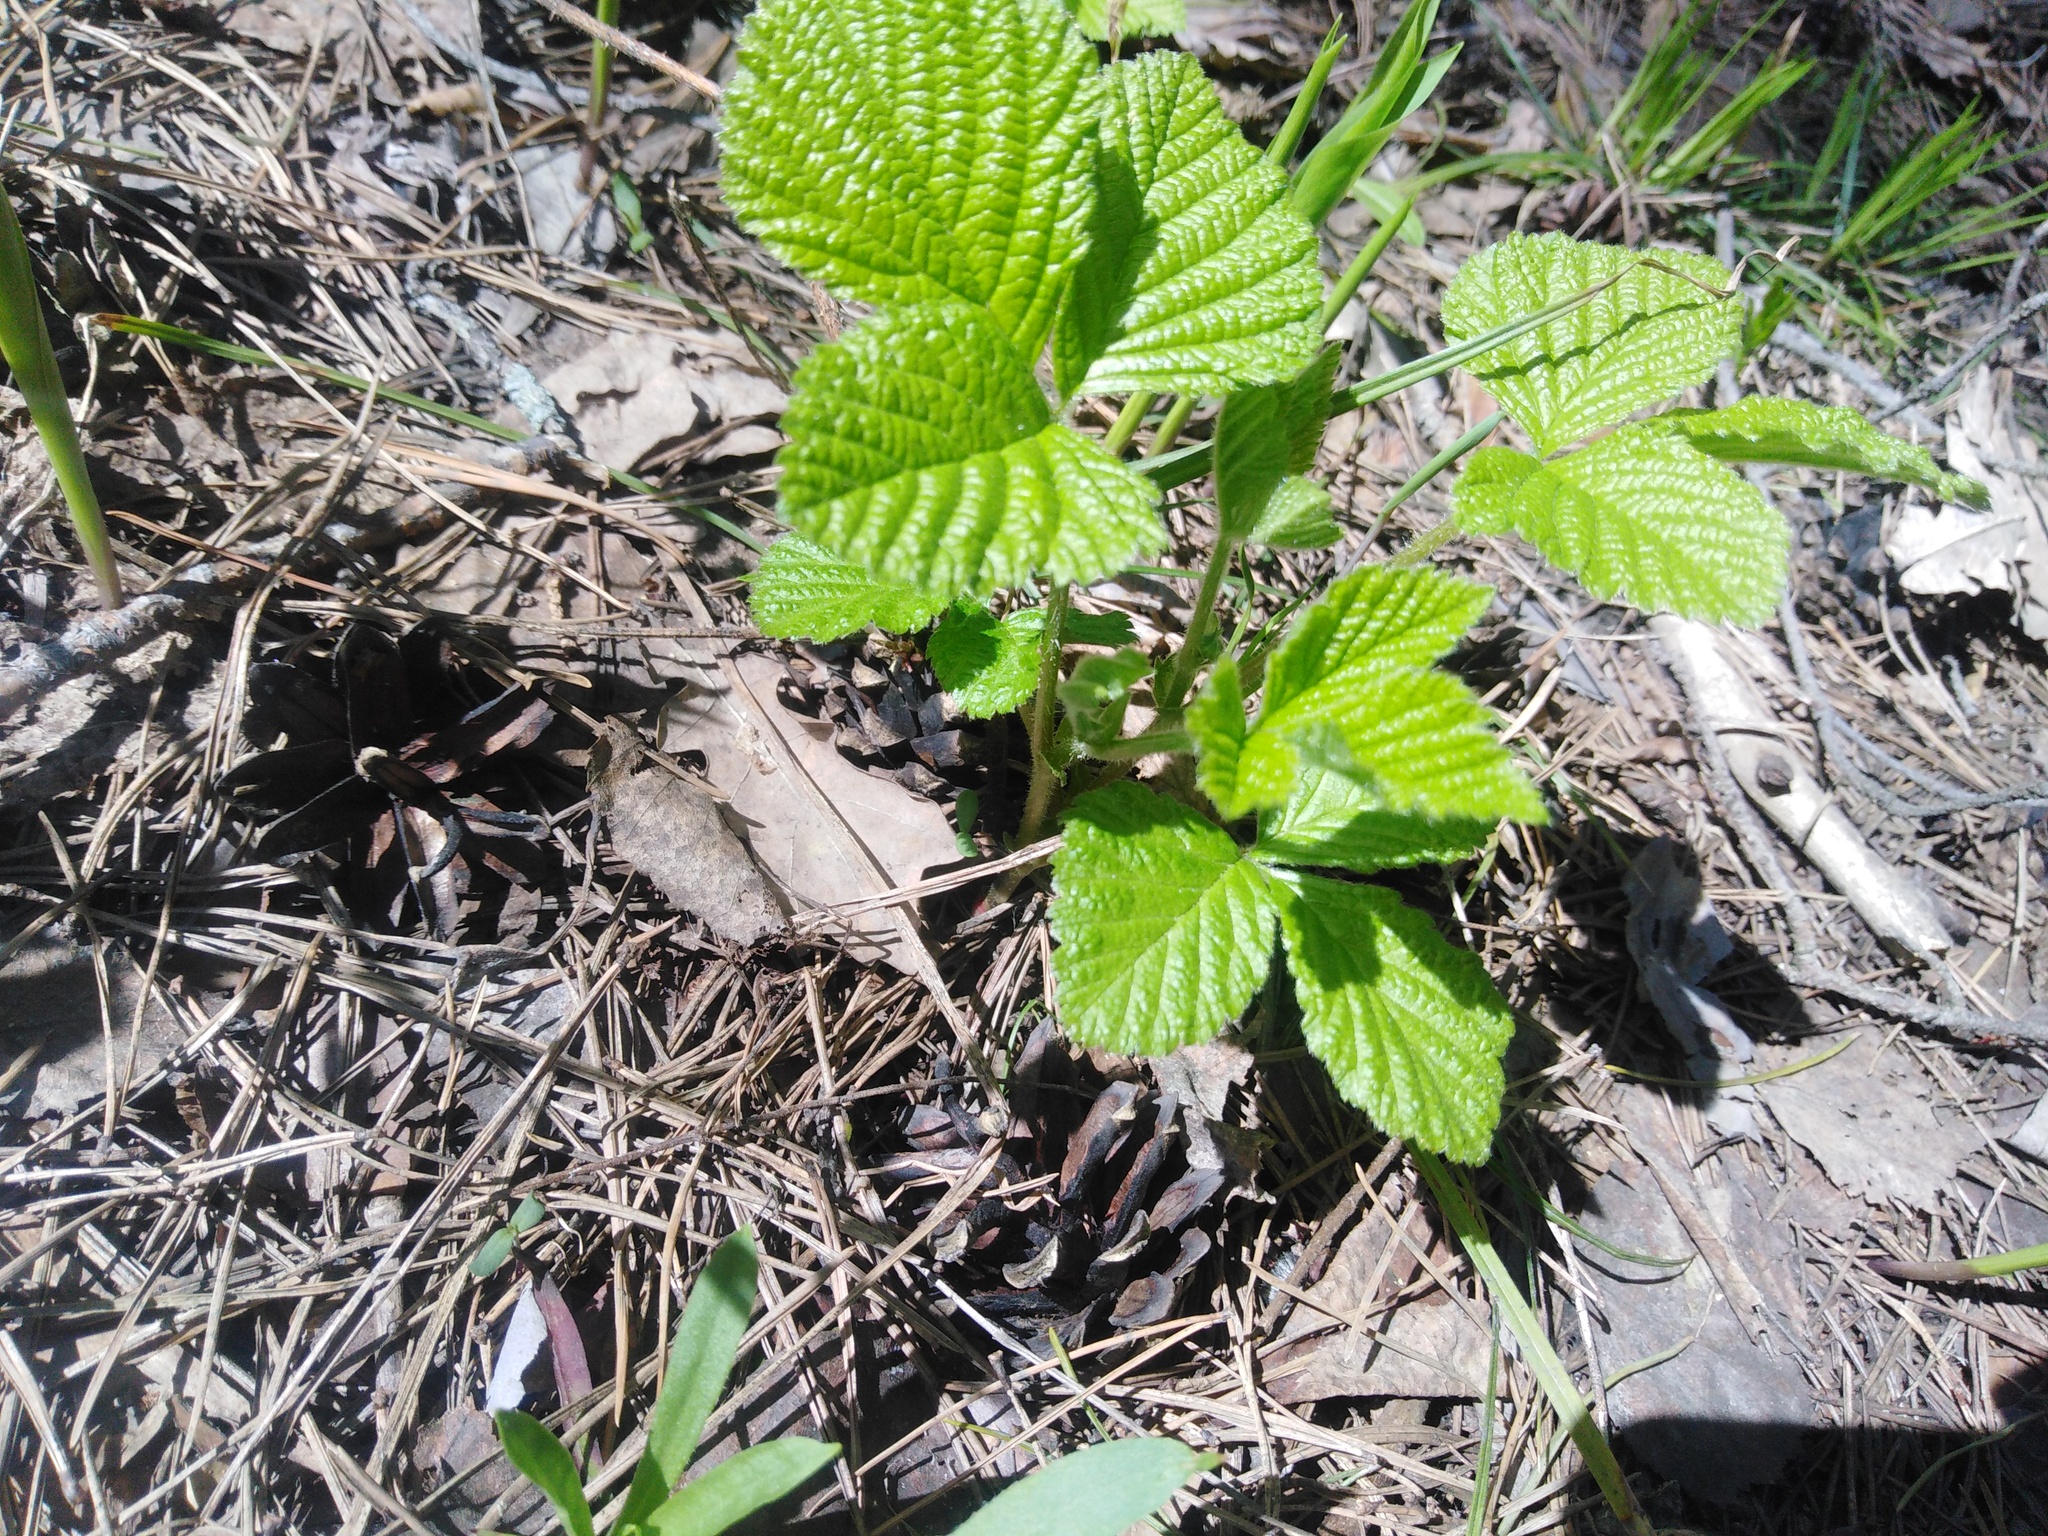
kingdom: Plantae
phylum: Tracheophyta
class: Magnoliopsida
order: Rosales
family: Rosaceae
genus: Rubus
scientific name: Rubus saxatilis
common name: Stone bramble
